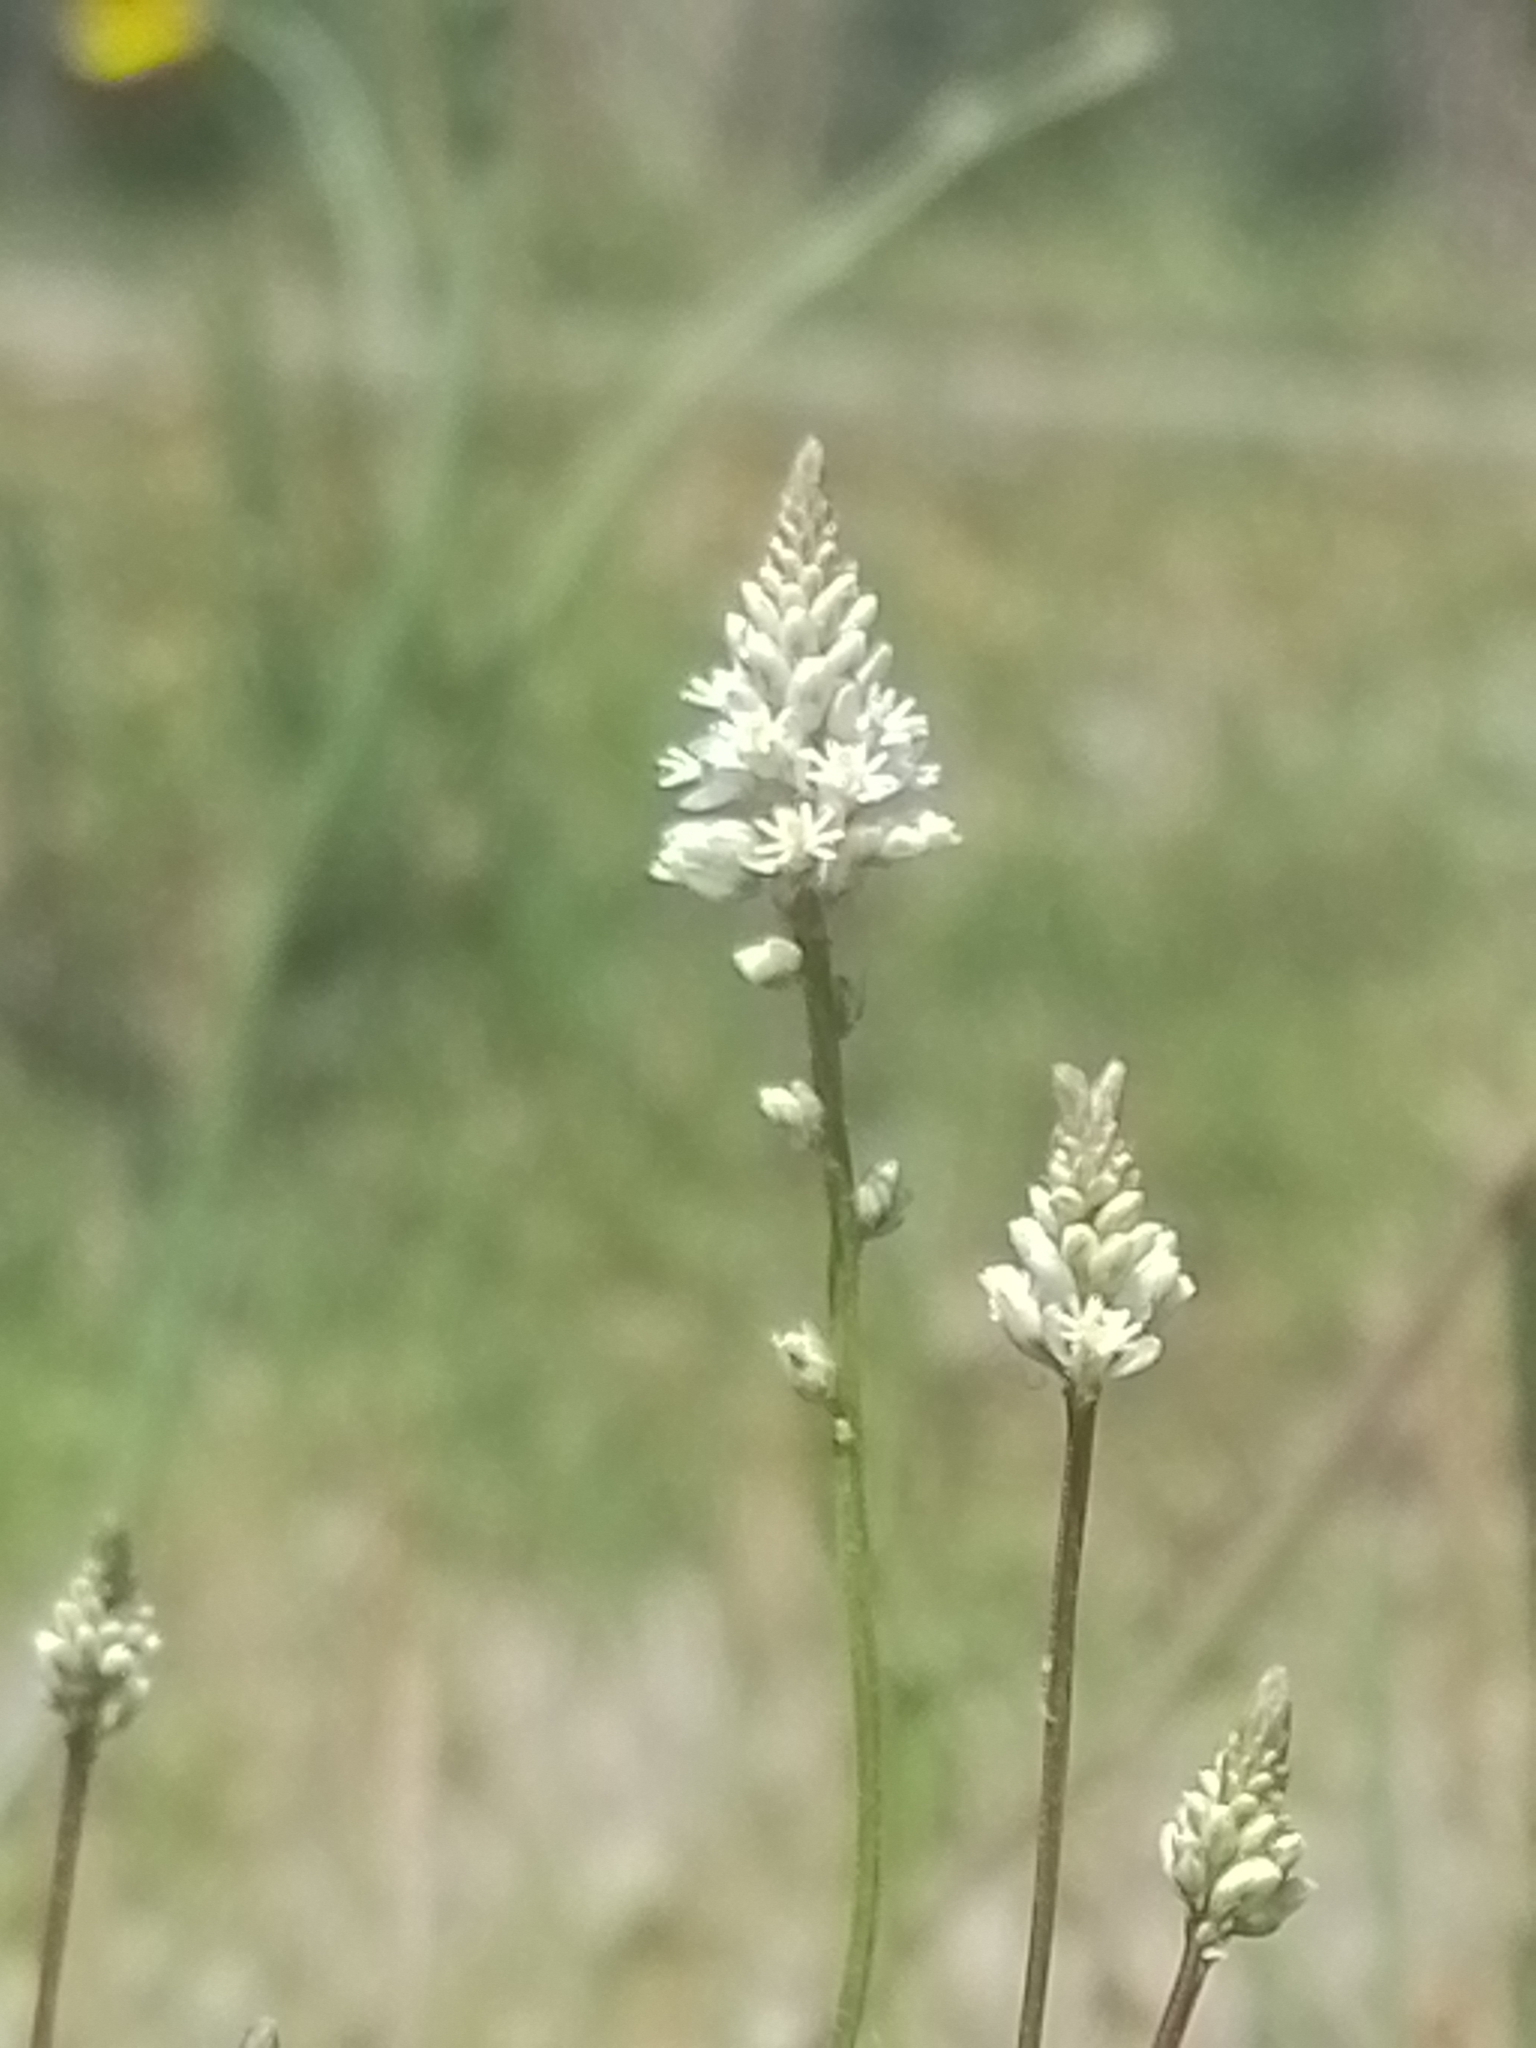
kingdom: Plantae
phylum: Tracheophyta
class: Magnoliopsida
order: Fabales
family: Polygalaceae
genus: Polygala
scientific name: Polygala linoides
